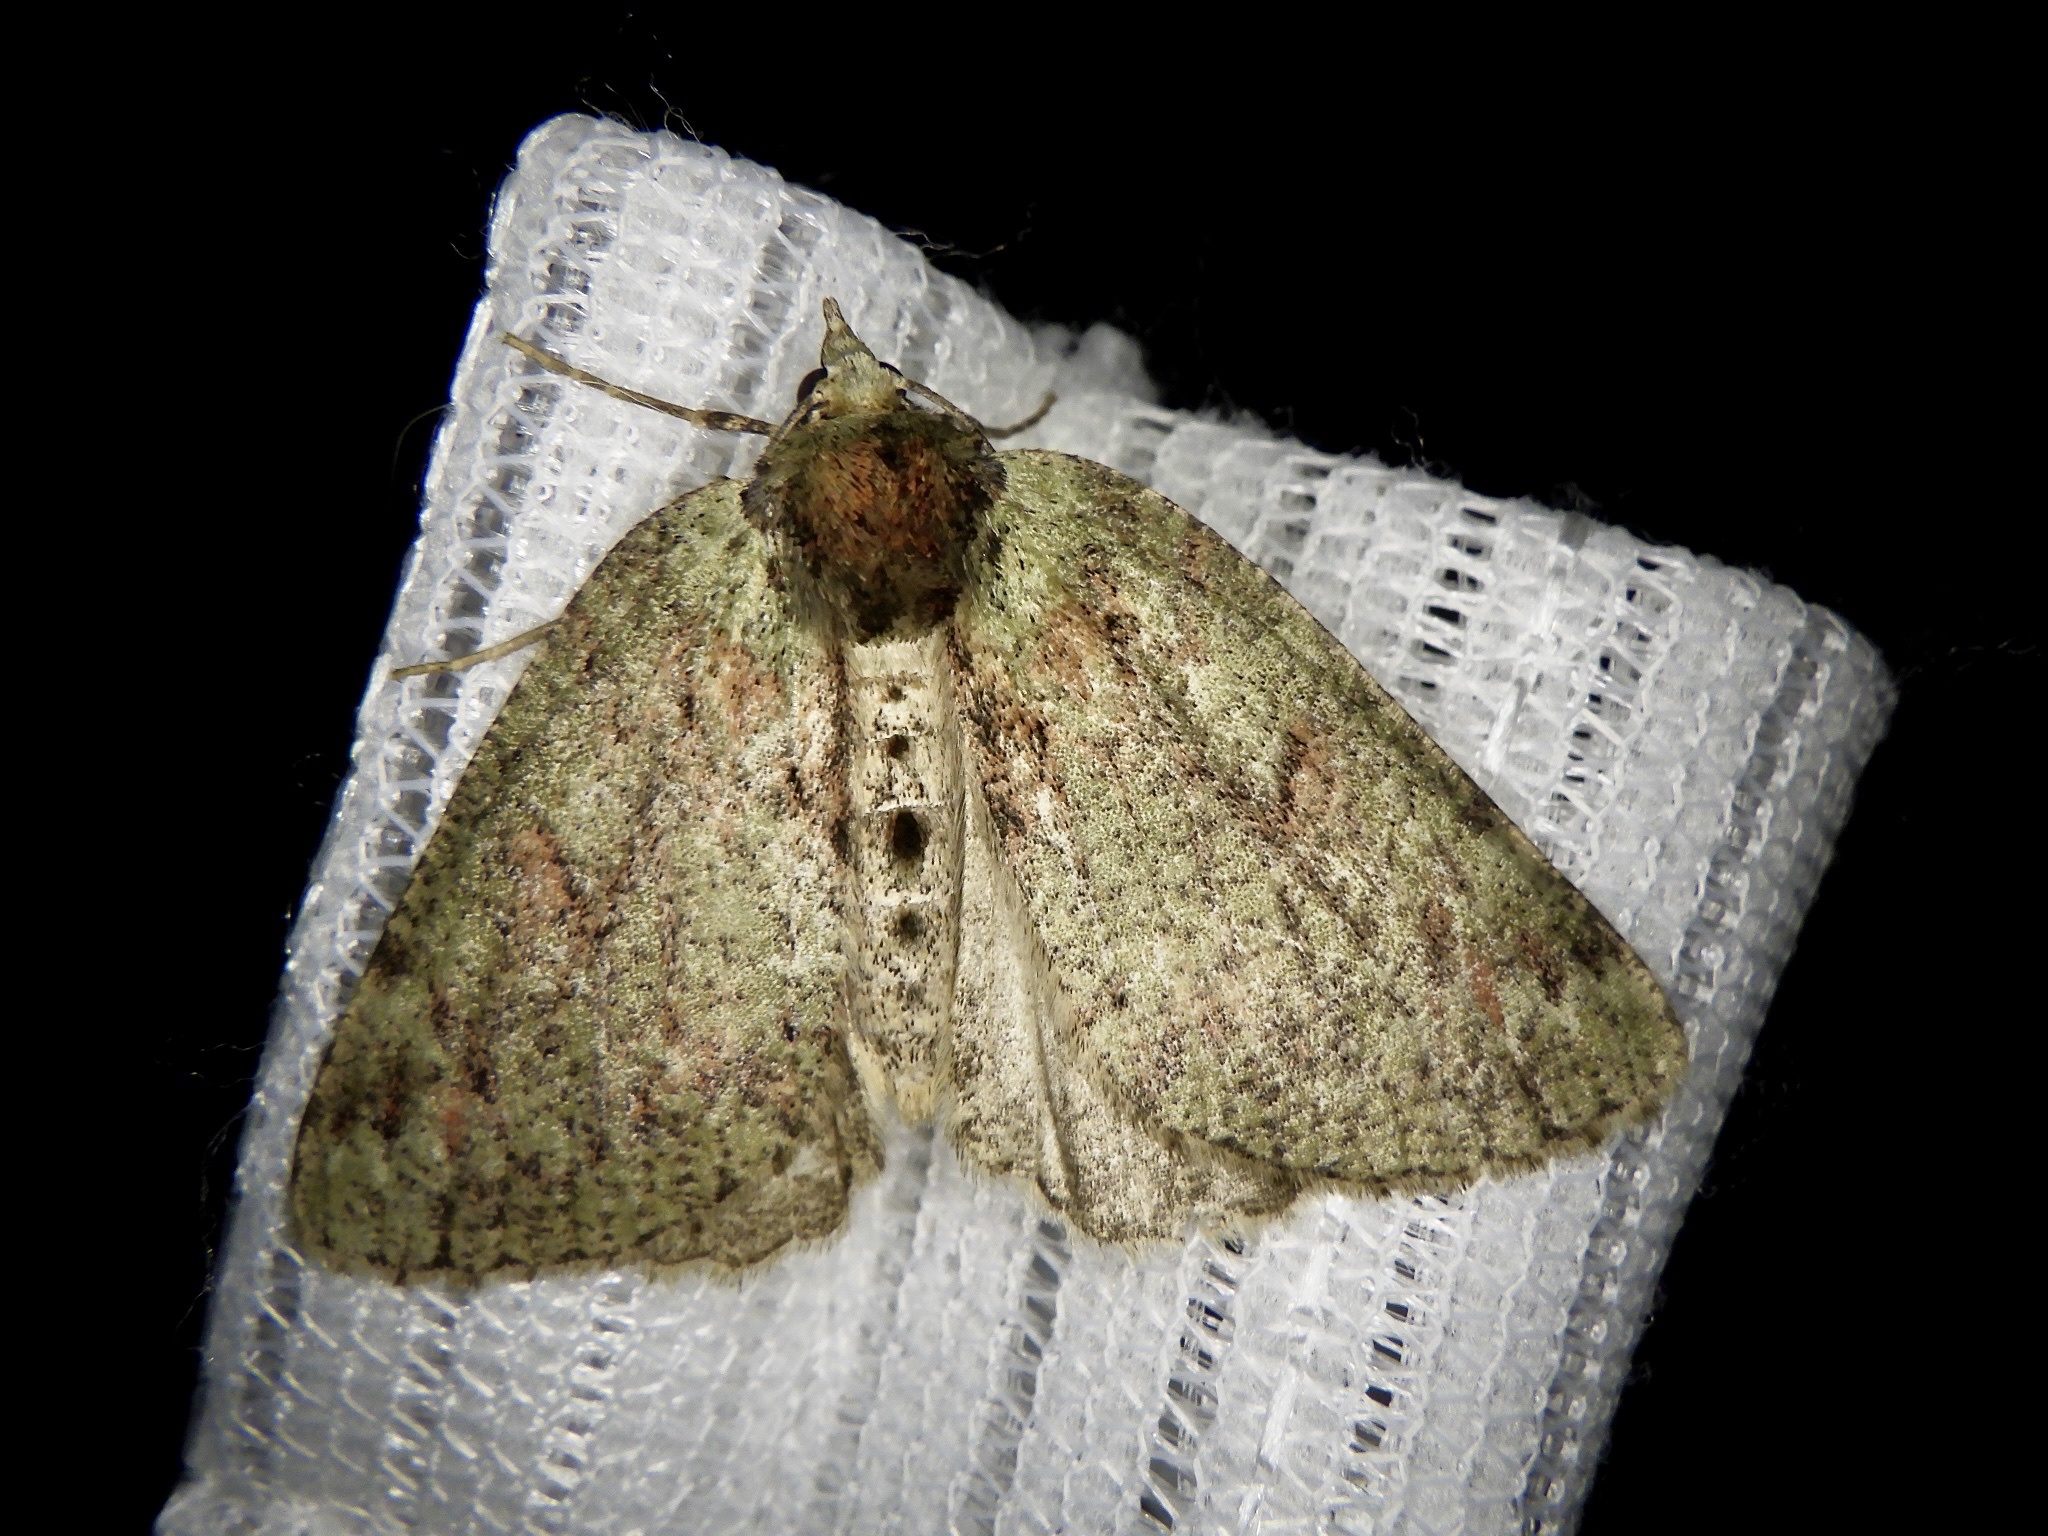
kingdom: Animalia
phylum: Arthropoda
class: Insecta
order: Lepidoptera
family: Geometridae
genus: Dindica
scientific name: Dindica virescens
